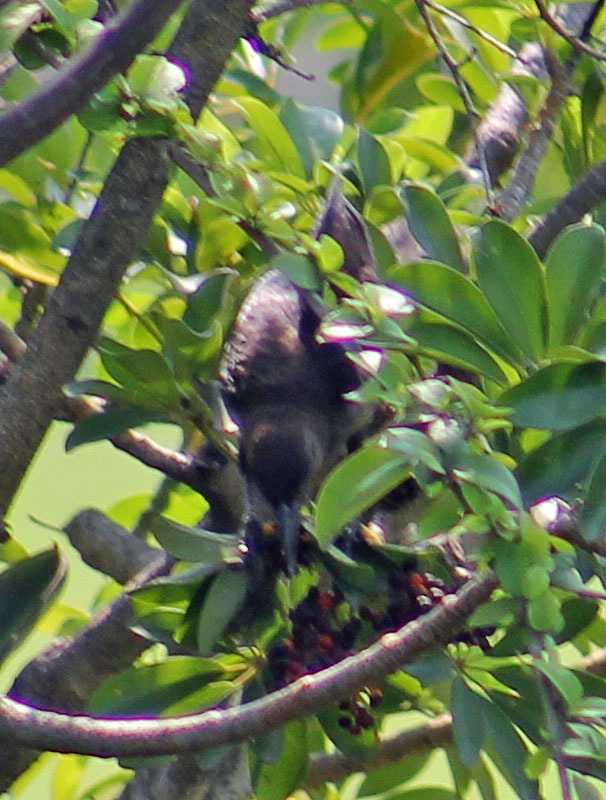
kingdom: Animalia
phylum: Chordata
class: Aves
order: Passeriformes
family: Mimidae
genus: Dumetella
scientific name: Dumetella carolinensis
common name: Gray catbird
